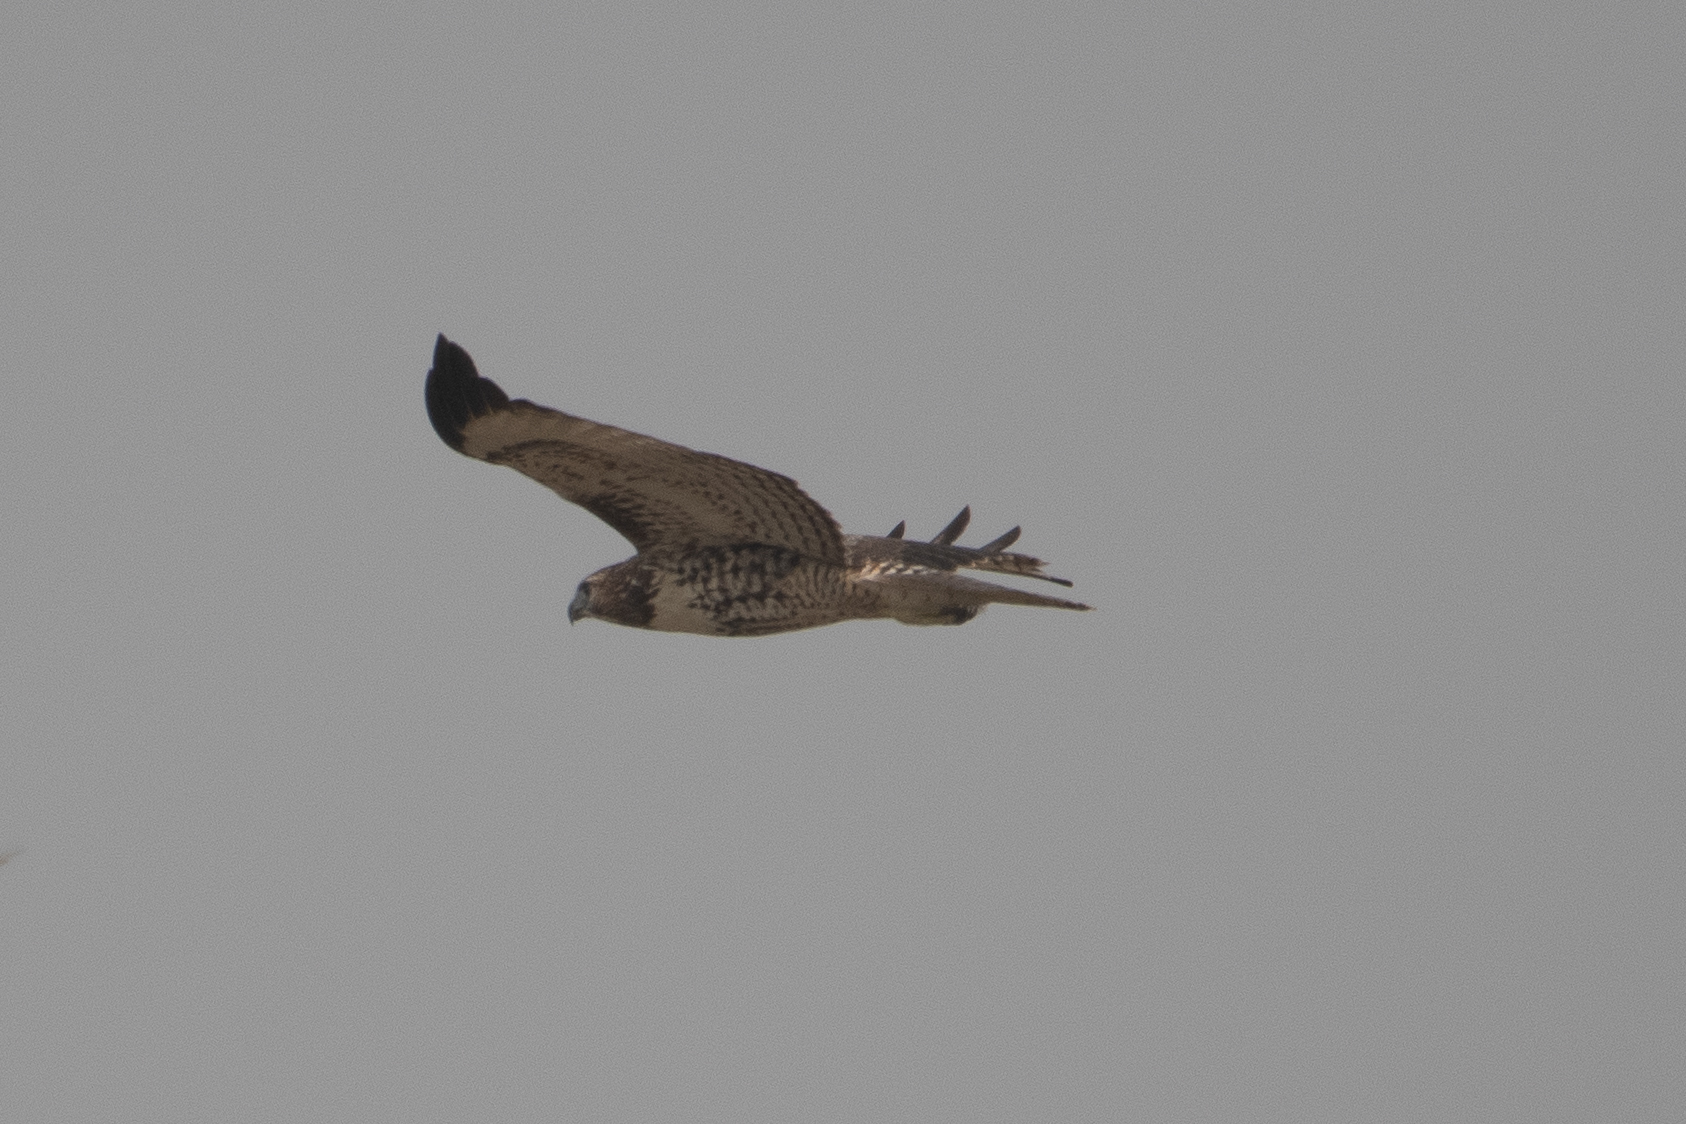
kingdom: Animalia
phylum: Chordata
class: Aves
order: Accipitriformes
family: Accipitridae
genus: Buteo
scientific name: Buteo jamaicensis
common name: Red-tailed hawk
